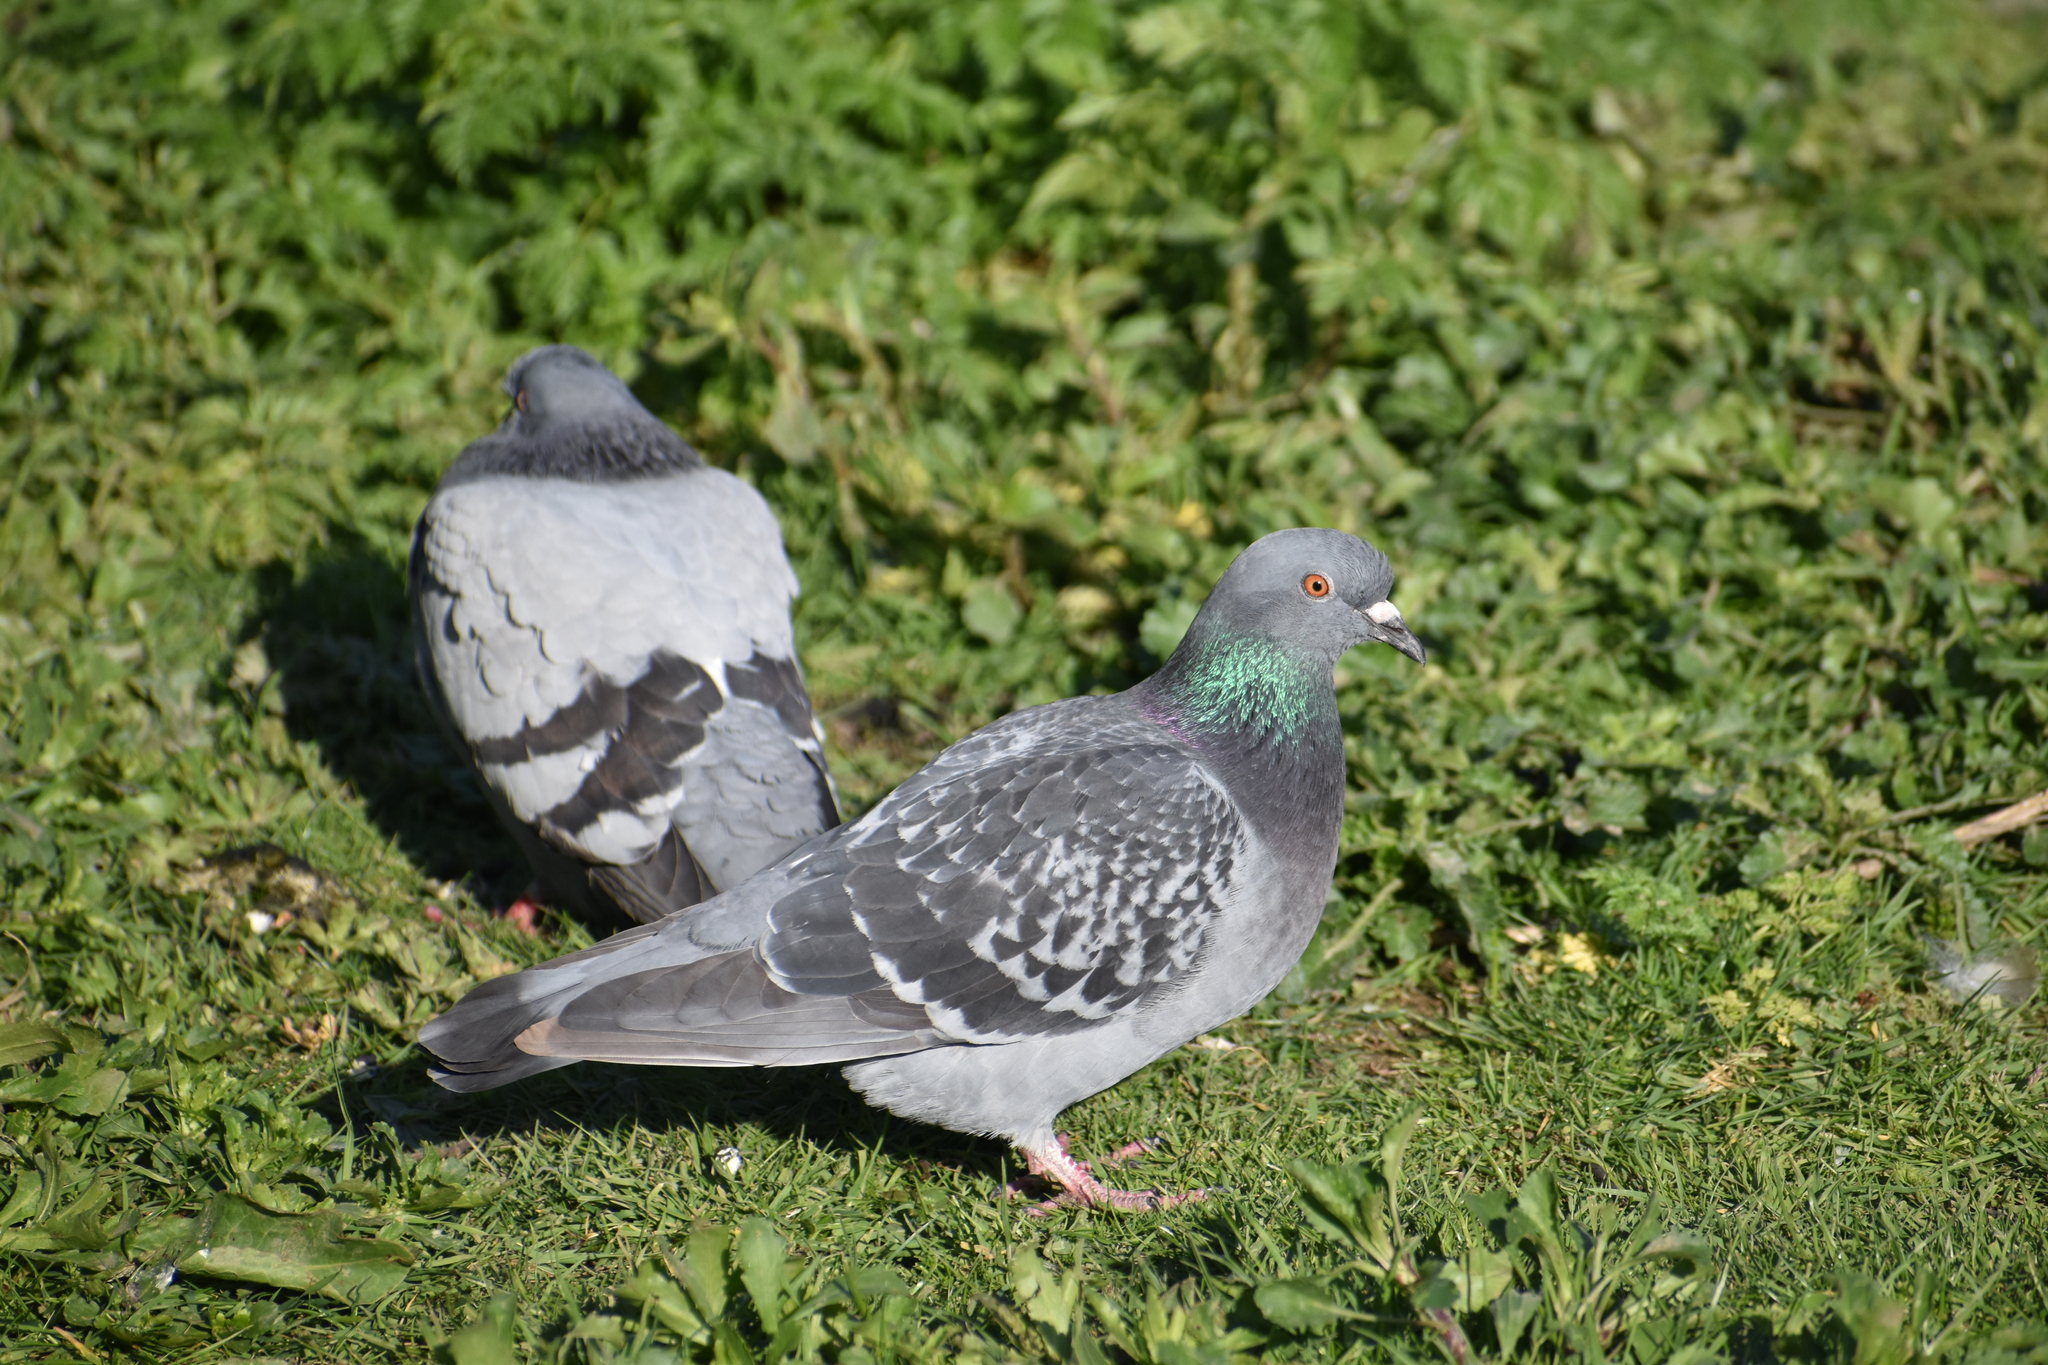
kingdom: Animalia
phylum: Chordata
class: Aves
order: Columbiformes
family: Columbidae
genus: Columba
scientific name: Columba livia
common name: Rock pigeon
